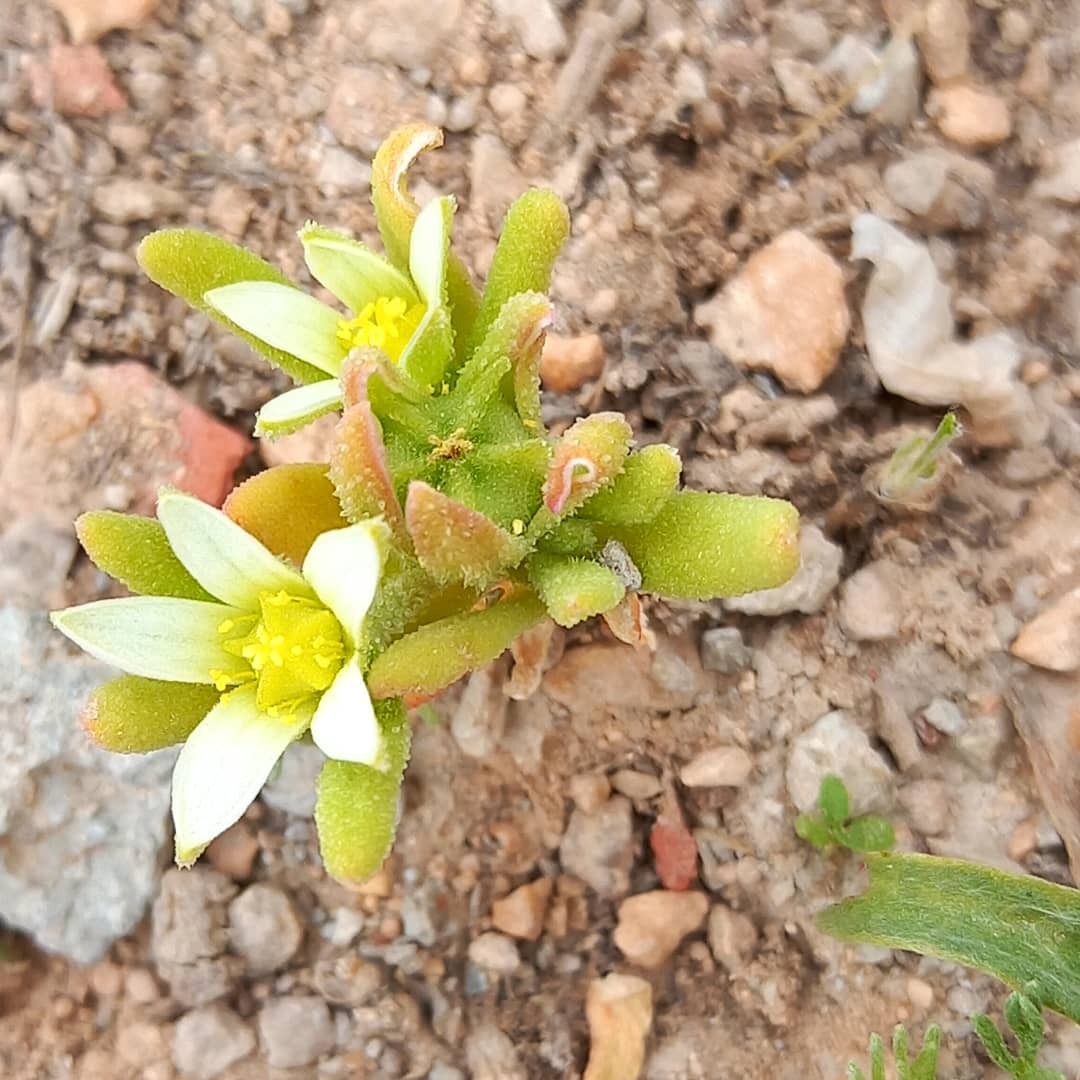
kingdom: Plantae
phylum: Tracheophyta
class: Magnoliopsida
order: Caryophyllales
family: Aizoaceae
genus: Aizoanthemopsis
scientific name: Aizoanthemopsis hispanica
